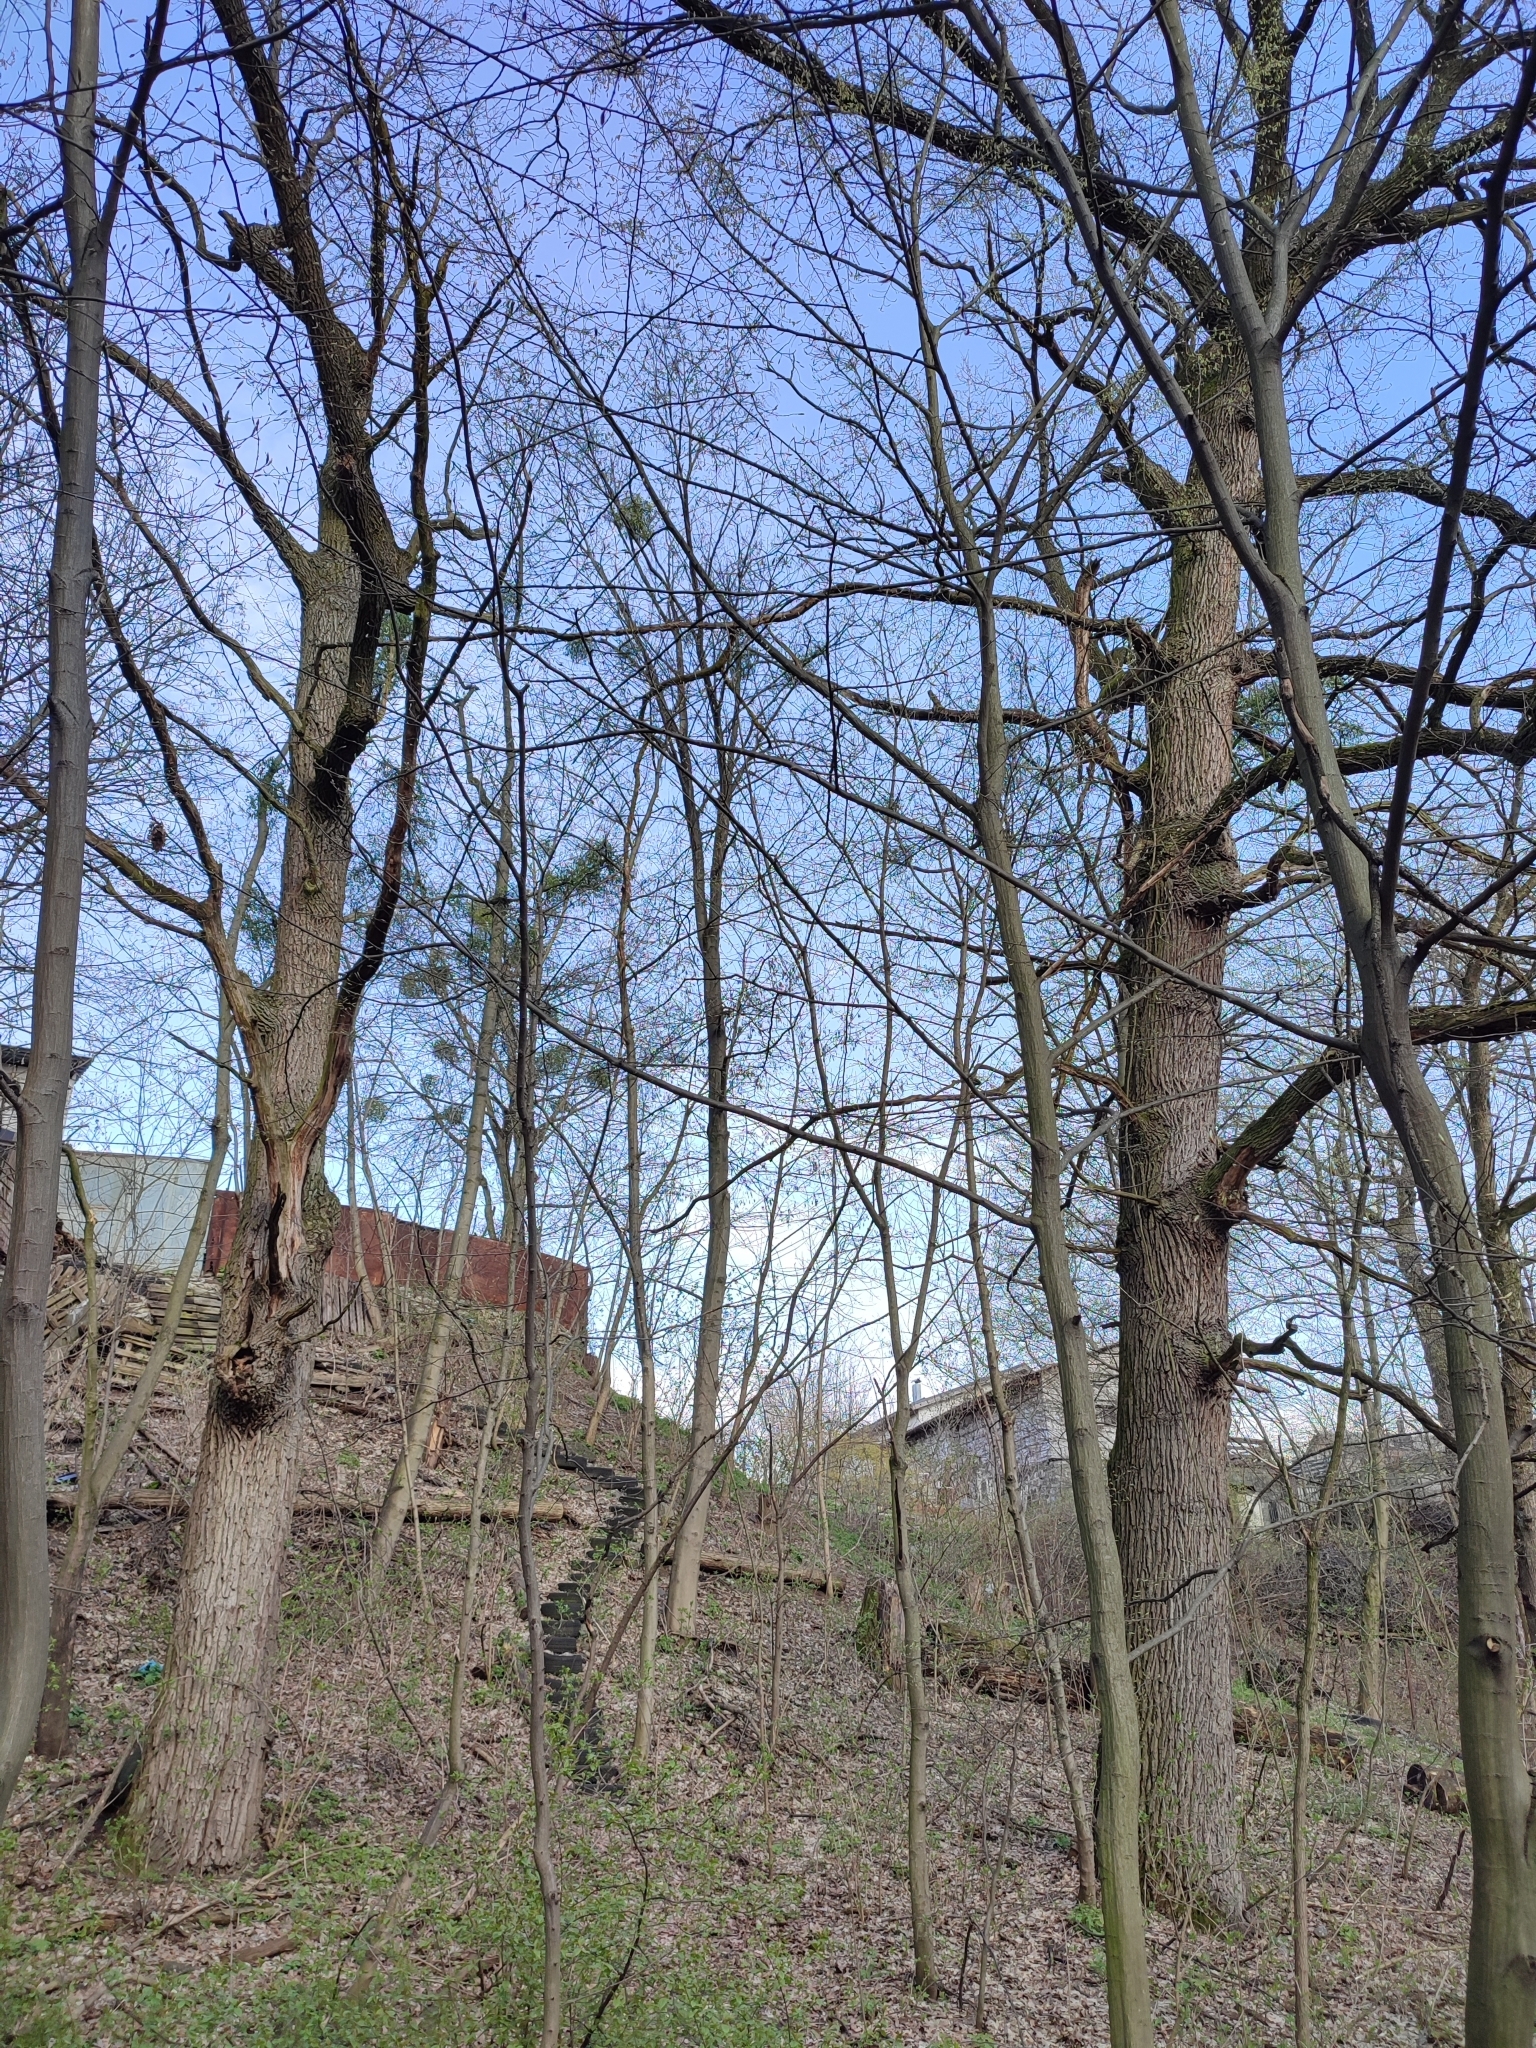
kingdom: Plantae
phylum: Tracheophyta
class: Magnoliopsida
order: Fagales
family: Fagaceae
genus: Quercus
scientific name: Quercus robur
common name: Pedunculate oak
